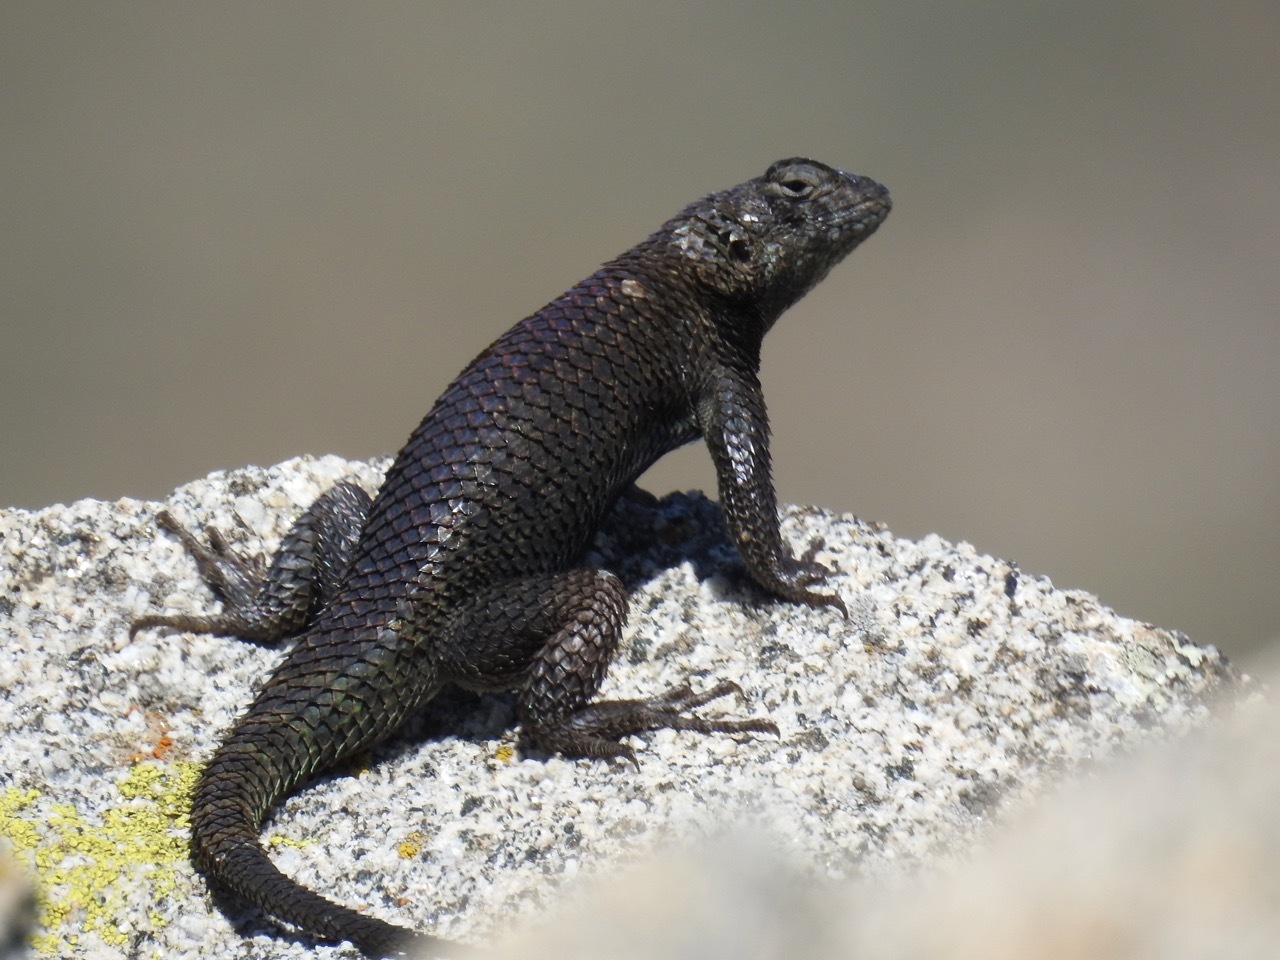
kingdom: Animalia
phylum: Chordata
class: Squamata
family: Phrynosomatidae
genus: Sceloporus
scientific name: Sceloporus orcutti
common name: Granite spiny lizard
